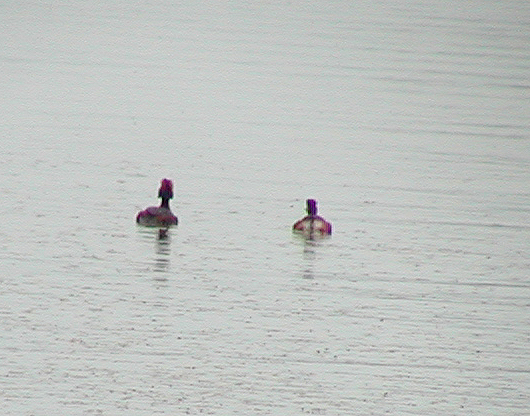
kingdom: Animalia
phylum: Chordata
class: Aves
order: Podicipediformes
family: Podicipedidae
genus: Podiceps
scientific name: Podiceps auritus
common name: Horned grebe
